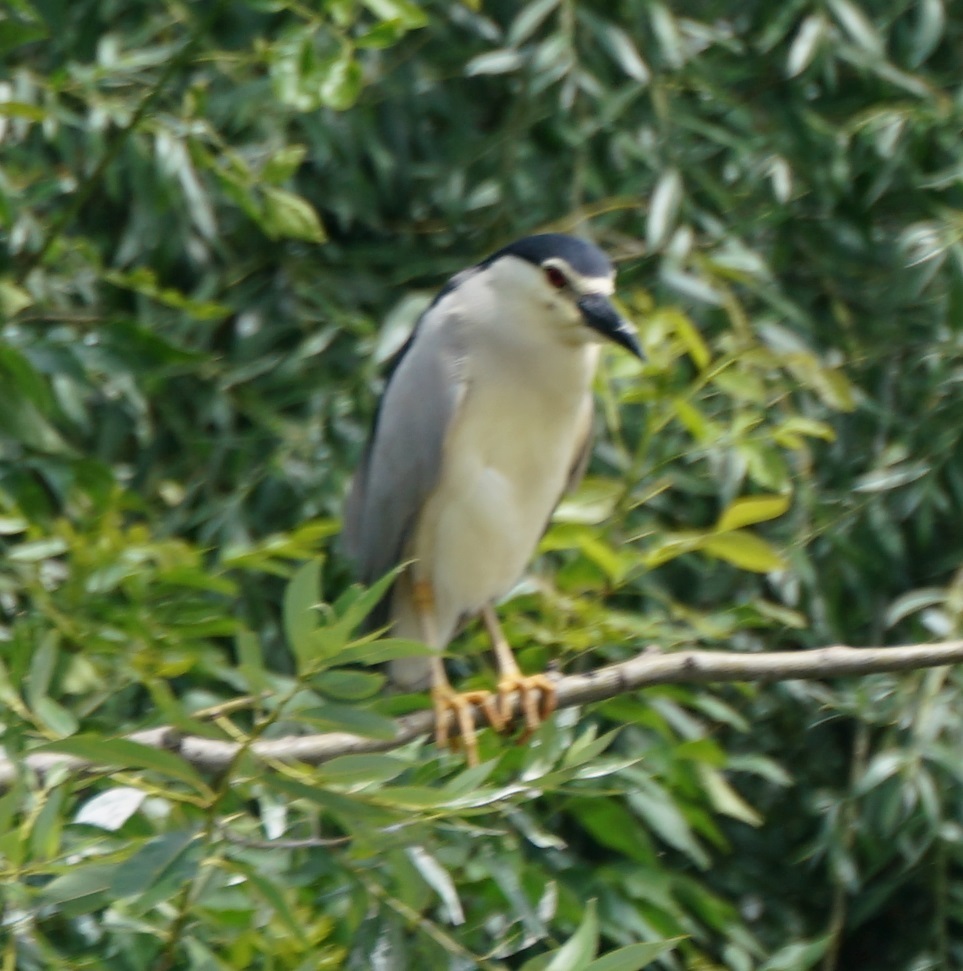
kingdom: Animalia
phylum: Chordata
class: Aves
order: Pelecaniformes
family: Ardeidae
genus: Nycticorax
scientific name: Nycticorax nycticorax
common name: Black-crowned night heron
